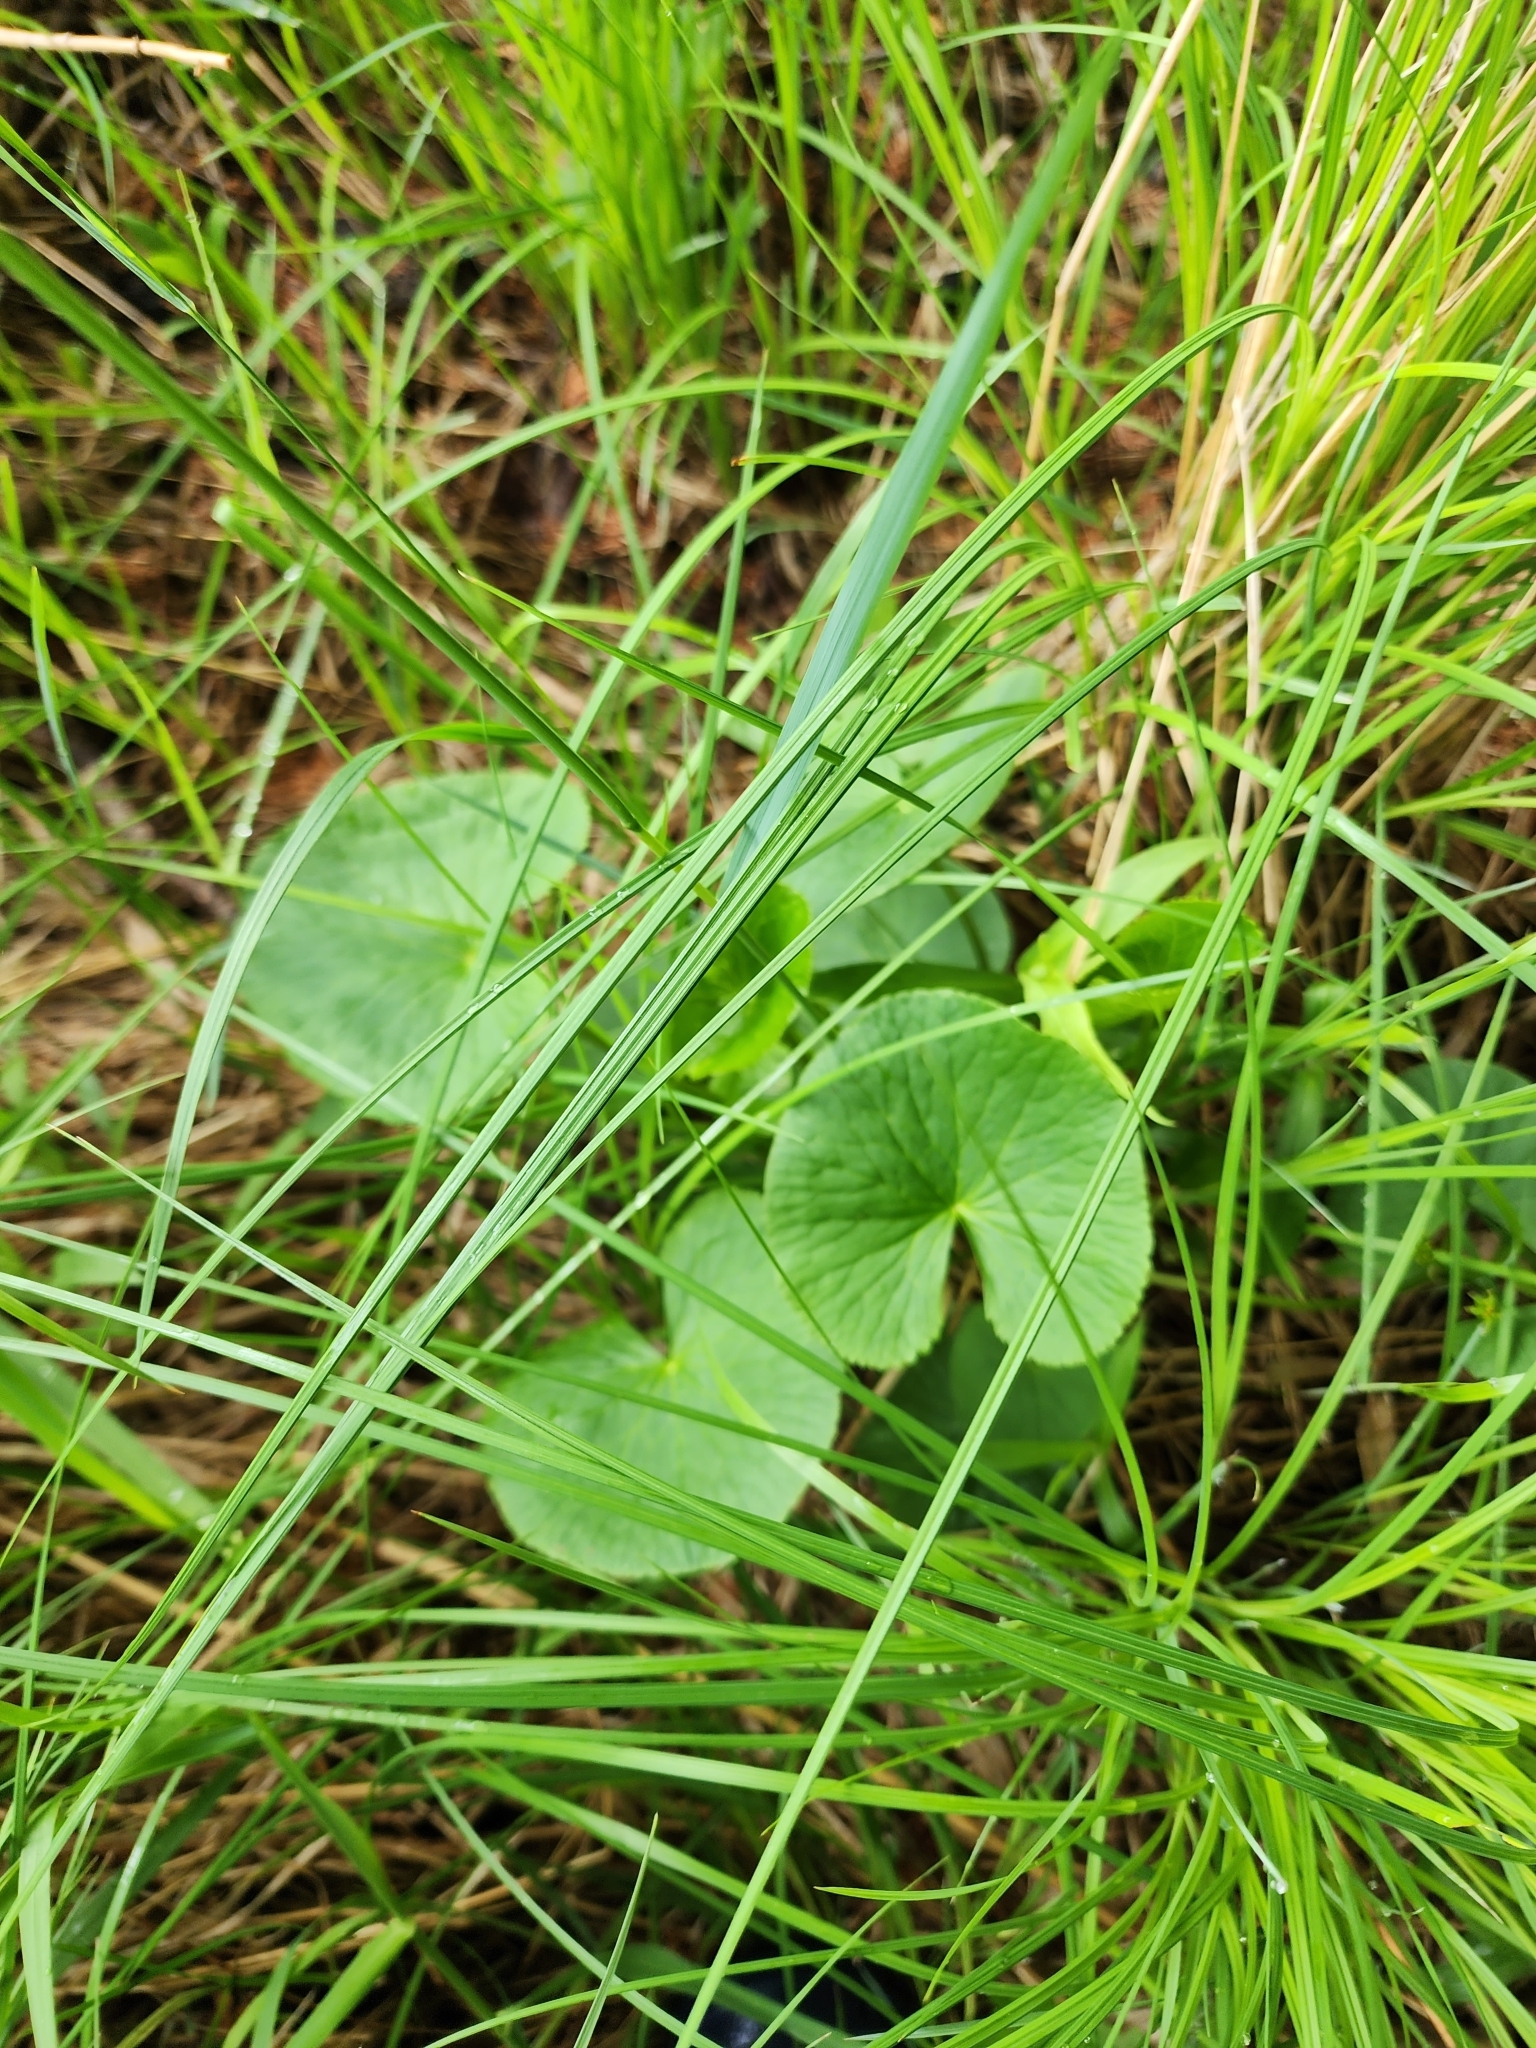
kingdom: Plantae
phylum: Tracheophyta
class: Magnoliopsida
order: Ranunculales
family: Ranunculaceae
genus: Caltha
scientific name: Caltha palustris
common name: Marsh marigold
